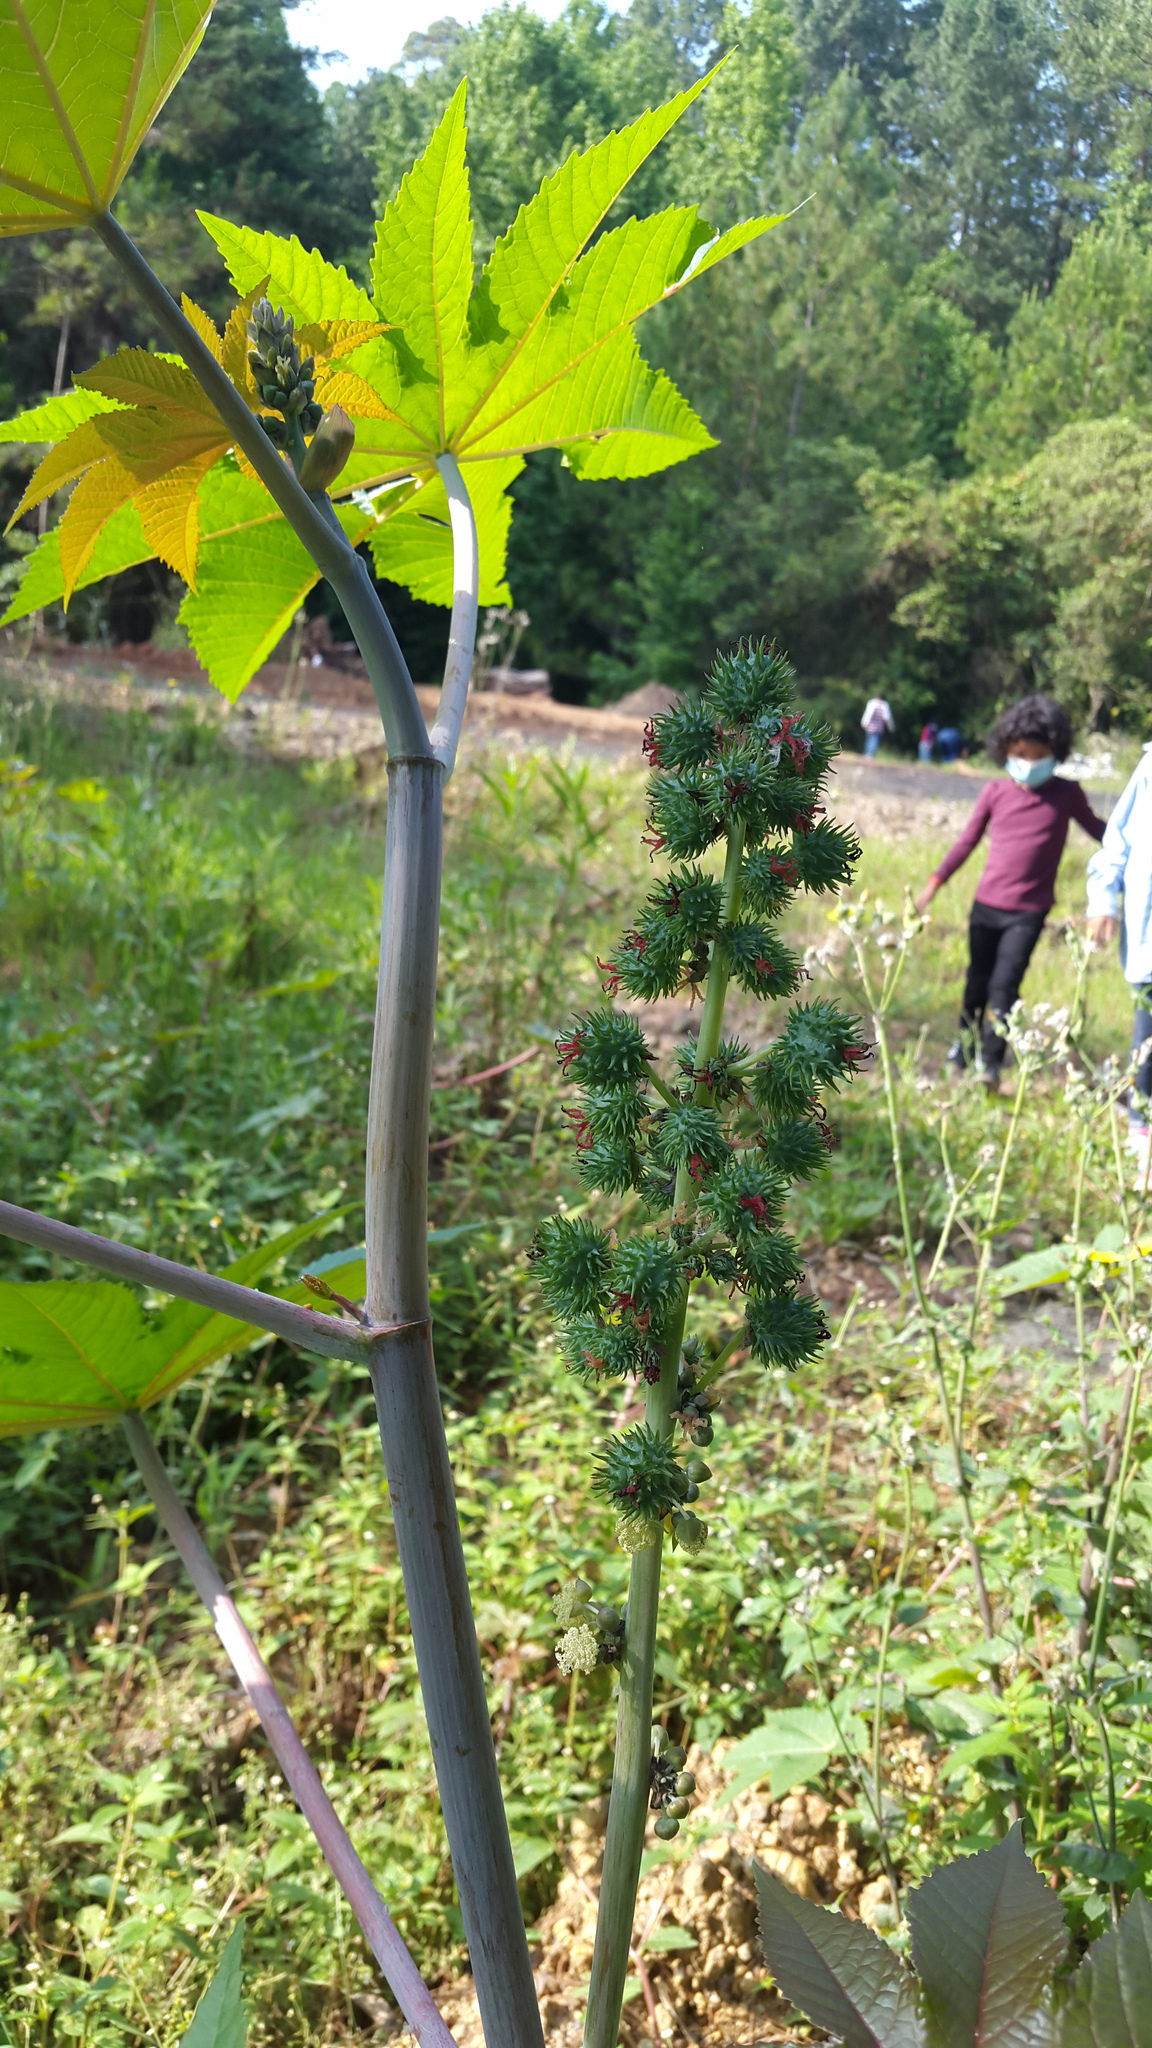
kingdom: Plantae
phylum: Tracheophyta
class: Magnoliopsida
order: Malpighiales
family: Euphorbiaceae
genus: Ricinus
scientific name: Ricinus communis
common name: Castor-oil-plant
